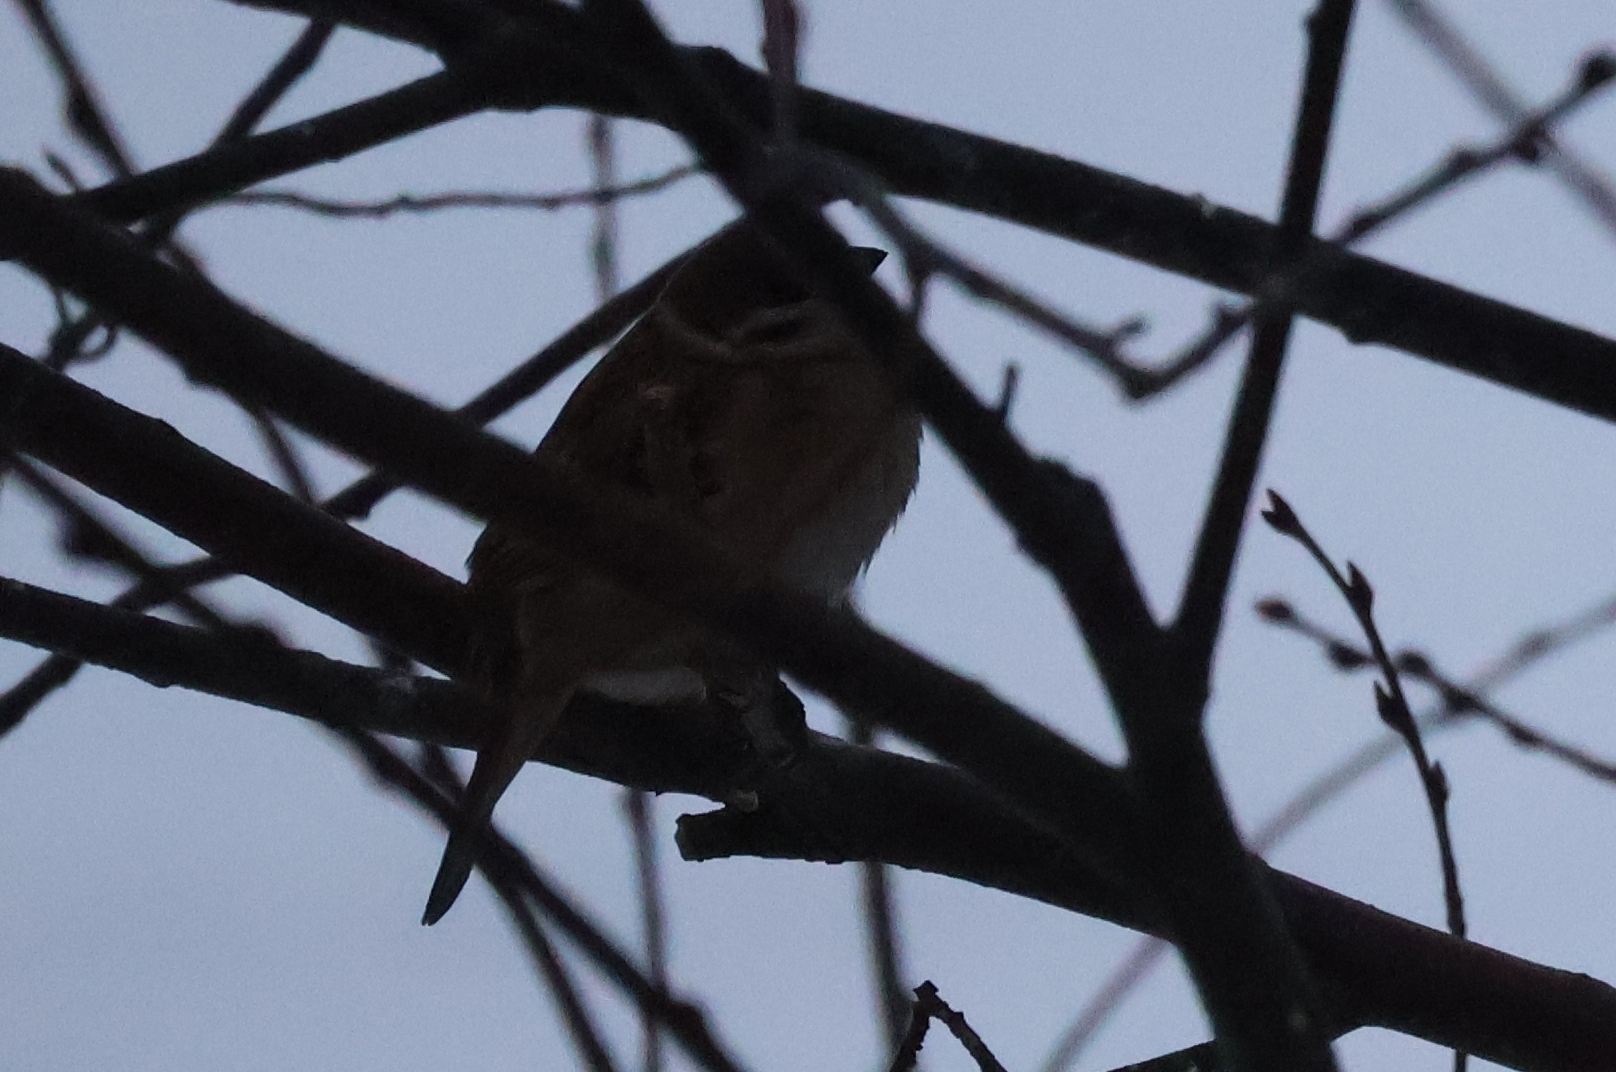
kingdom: Animalia
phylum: Chordata
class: Aves
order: Passeriformes
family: Passeridae
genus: Passer
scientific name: Passer montanus
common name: Eurasian tree sparrow
